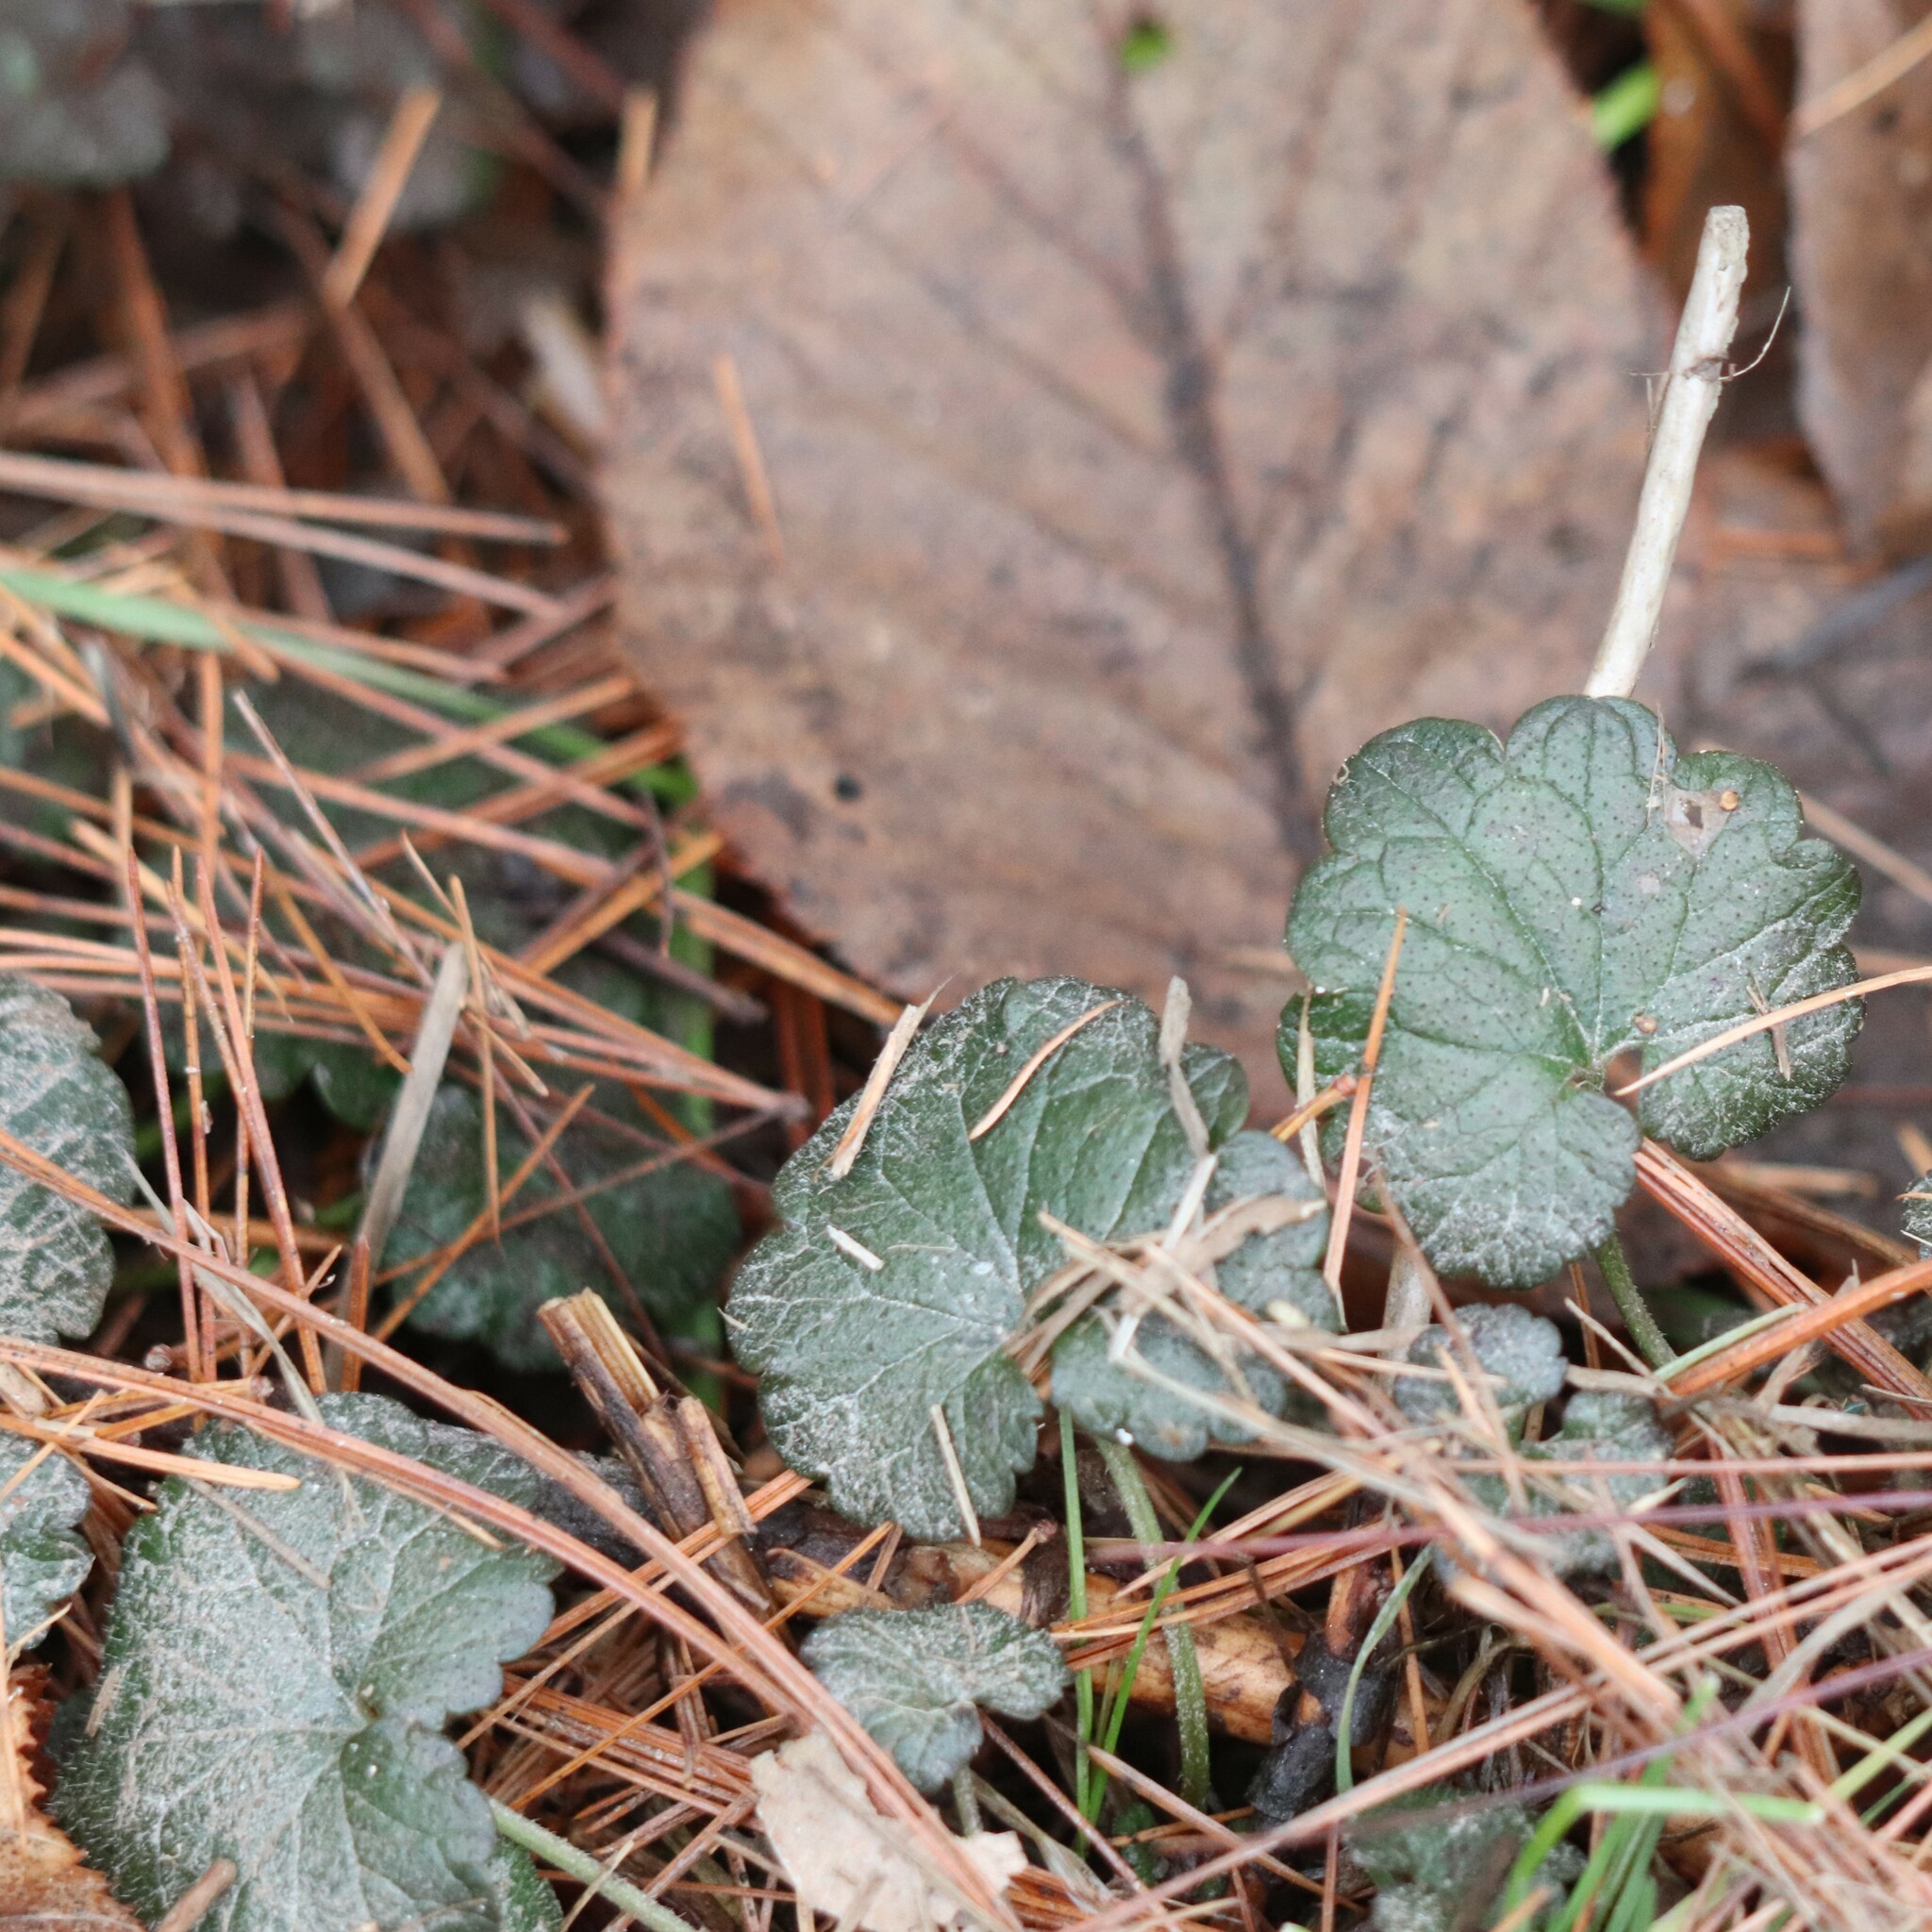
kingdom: Plantae
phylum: Tracheophyta
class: Magnoliopsida
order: Lamiales
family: Lamiaceae
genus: Glechoma
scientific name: Glechoma hederacea
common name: Ground ivy
